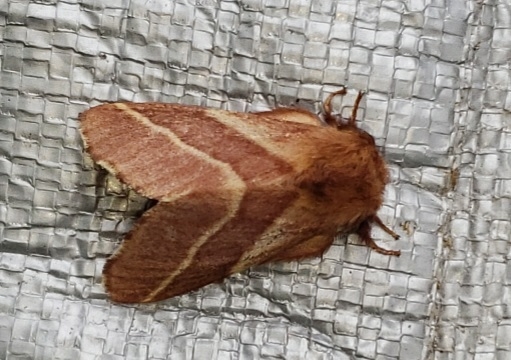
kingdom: Animalia
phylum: Arthropoda
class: Insecta
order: Lepidoptera
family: Lasiocampidae
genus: Malacosoma
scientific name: Malacosoma americana
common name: Eastern tent caterpillar moth
